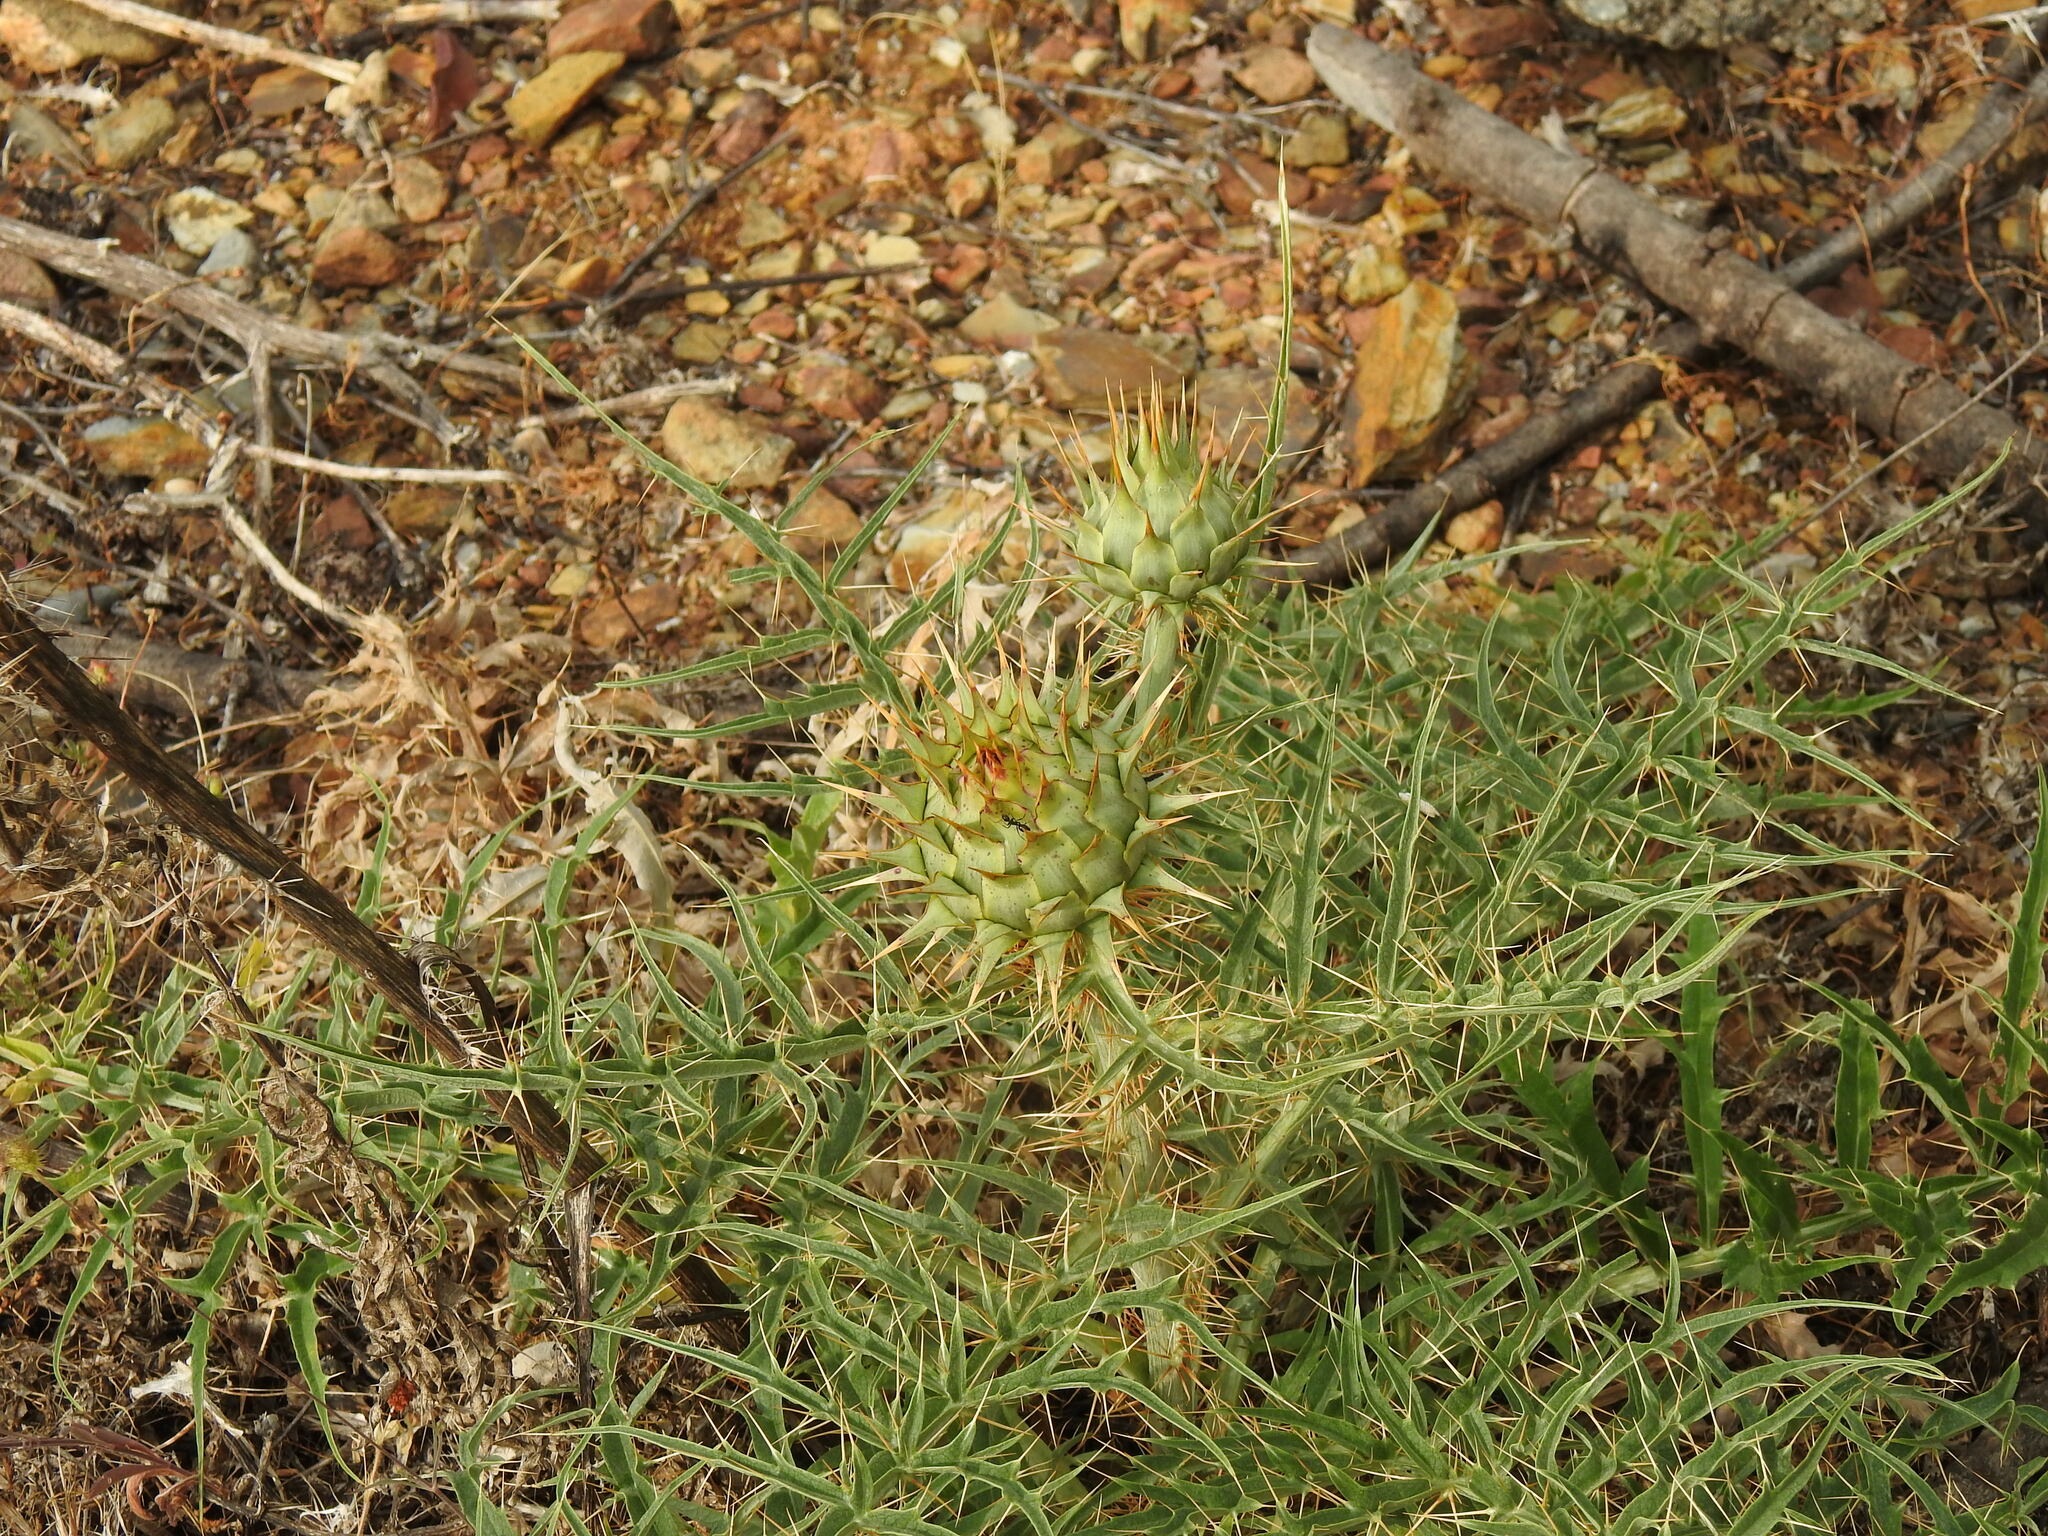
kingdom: Plantae
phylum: Tracheophyta
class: Magnoliopsida
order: Asterales
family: Asteraceae
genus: Cynara
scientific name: Cynara cardunculus
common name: Globe artichoke
